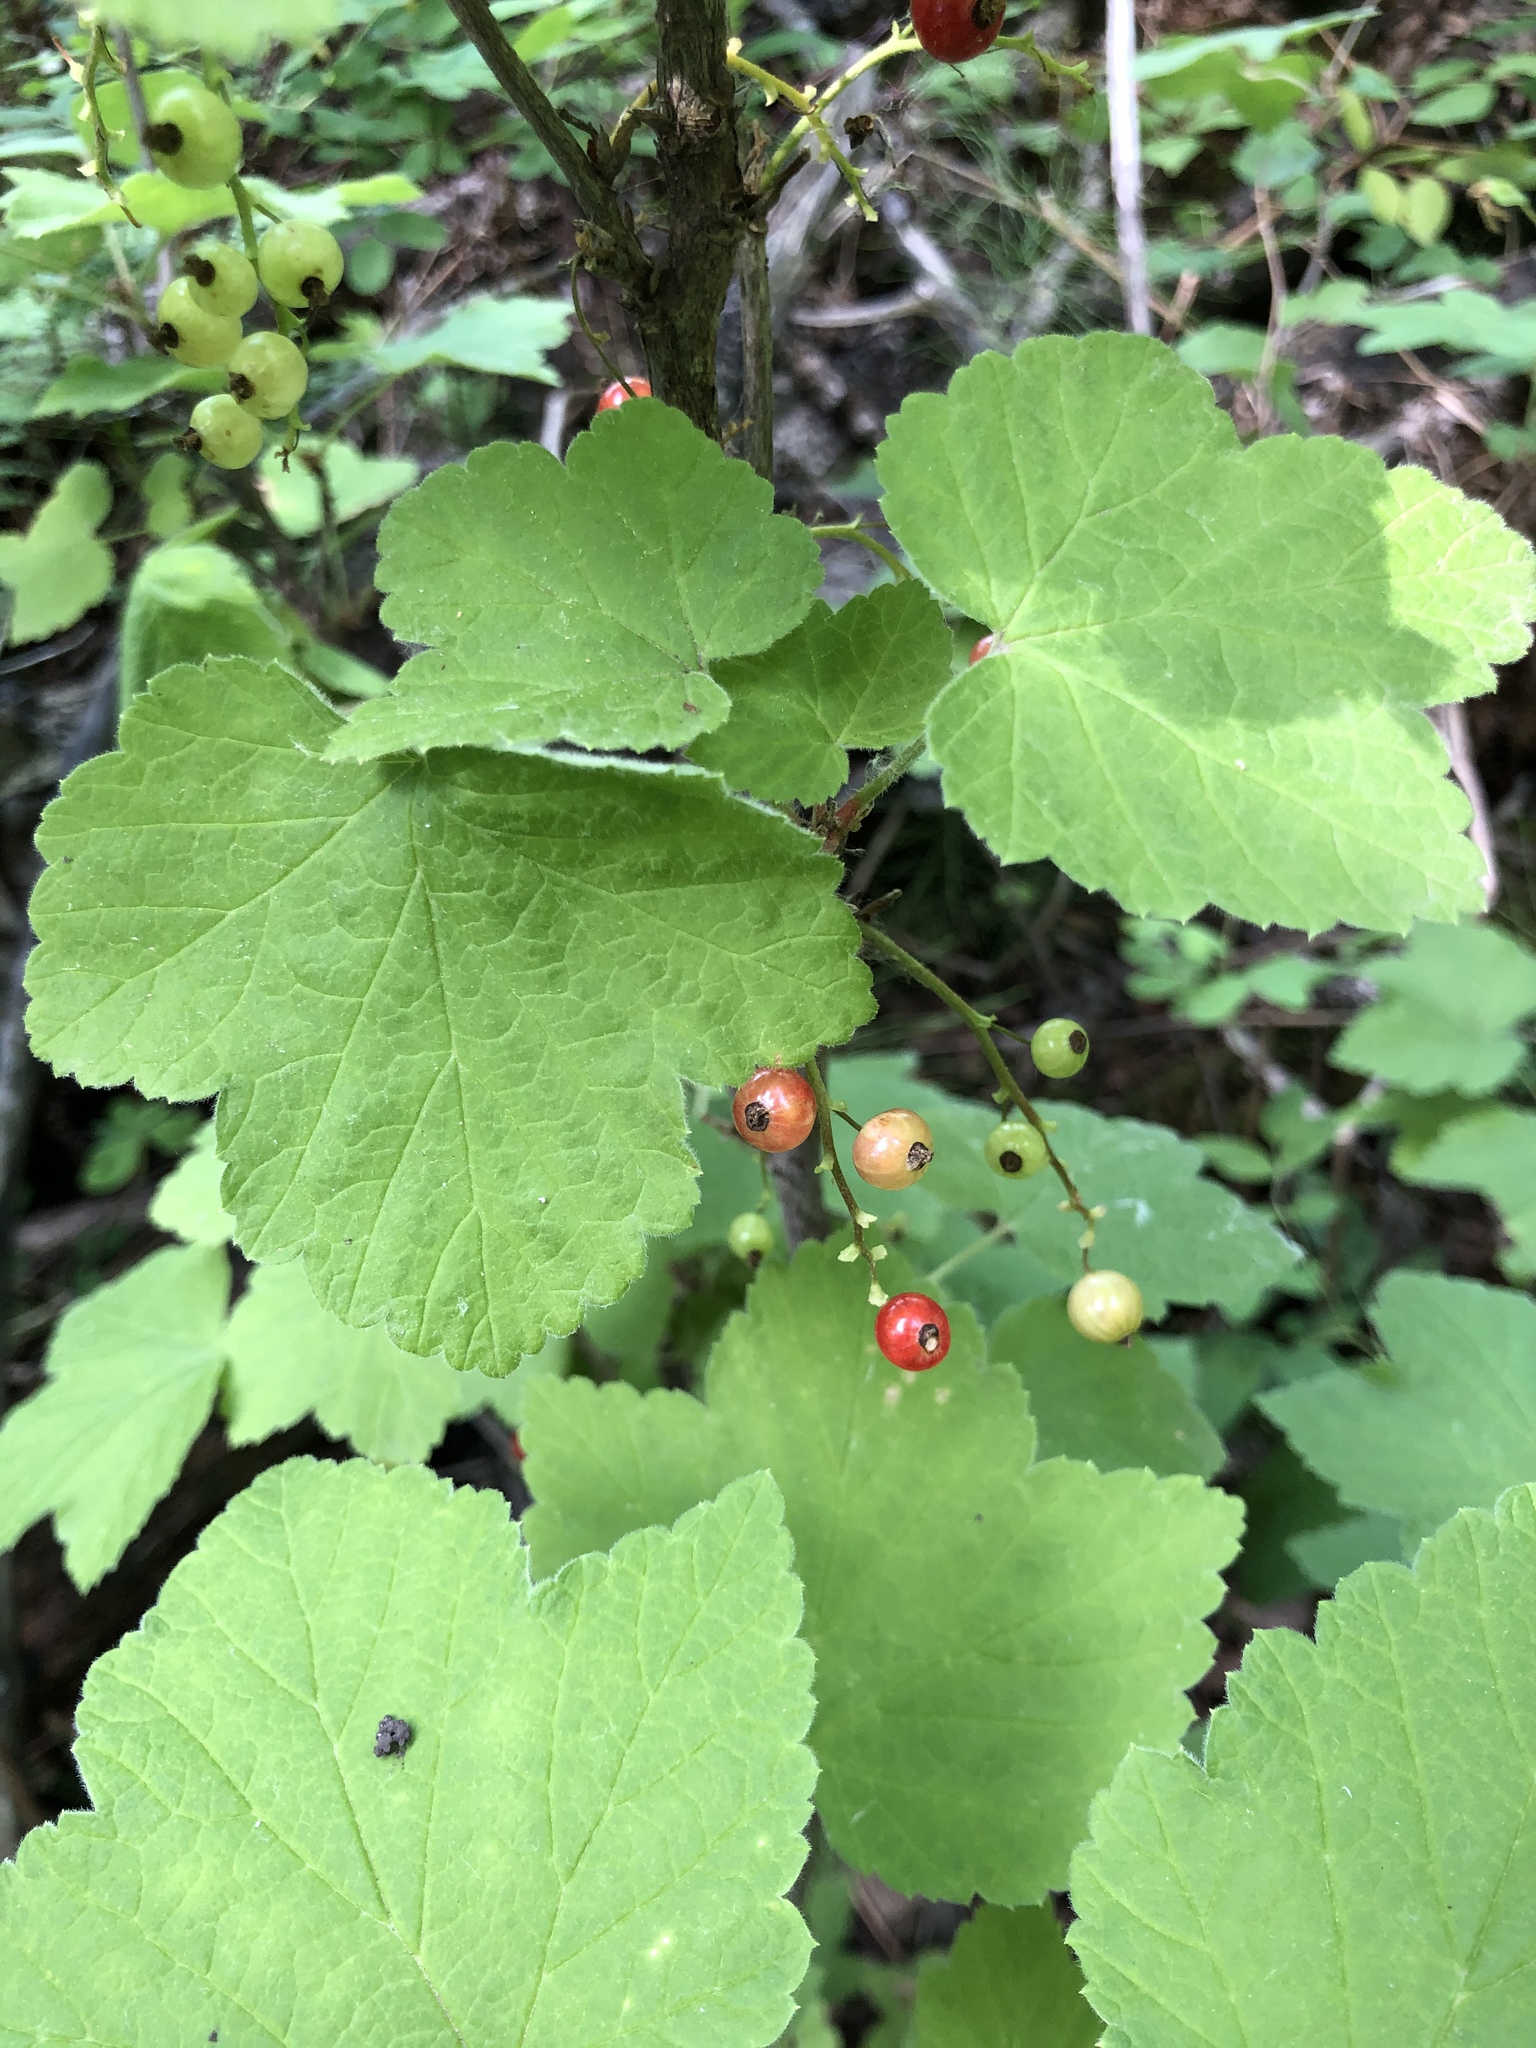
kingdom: Plantae
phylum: Tracheophyta
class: Magnoliopsida
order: Saxifragales
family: Grossulariaceae
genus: Ribes
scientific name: Ribes rubrum
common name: Red currant
